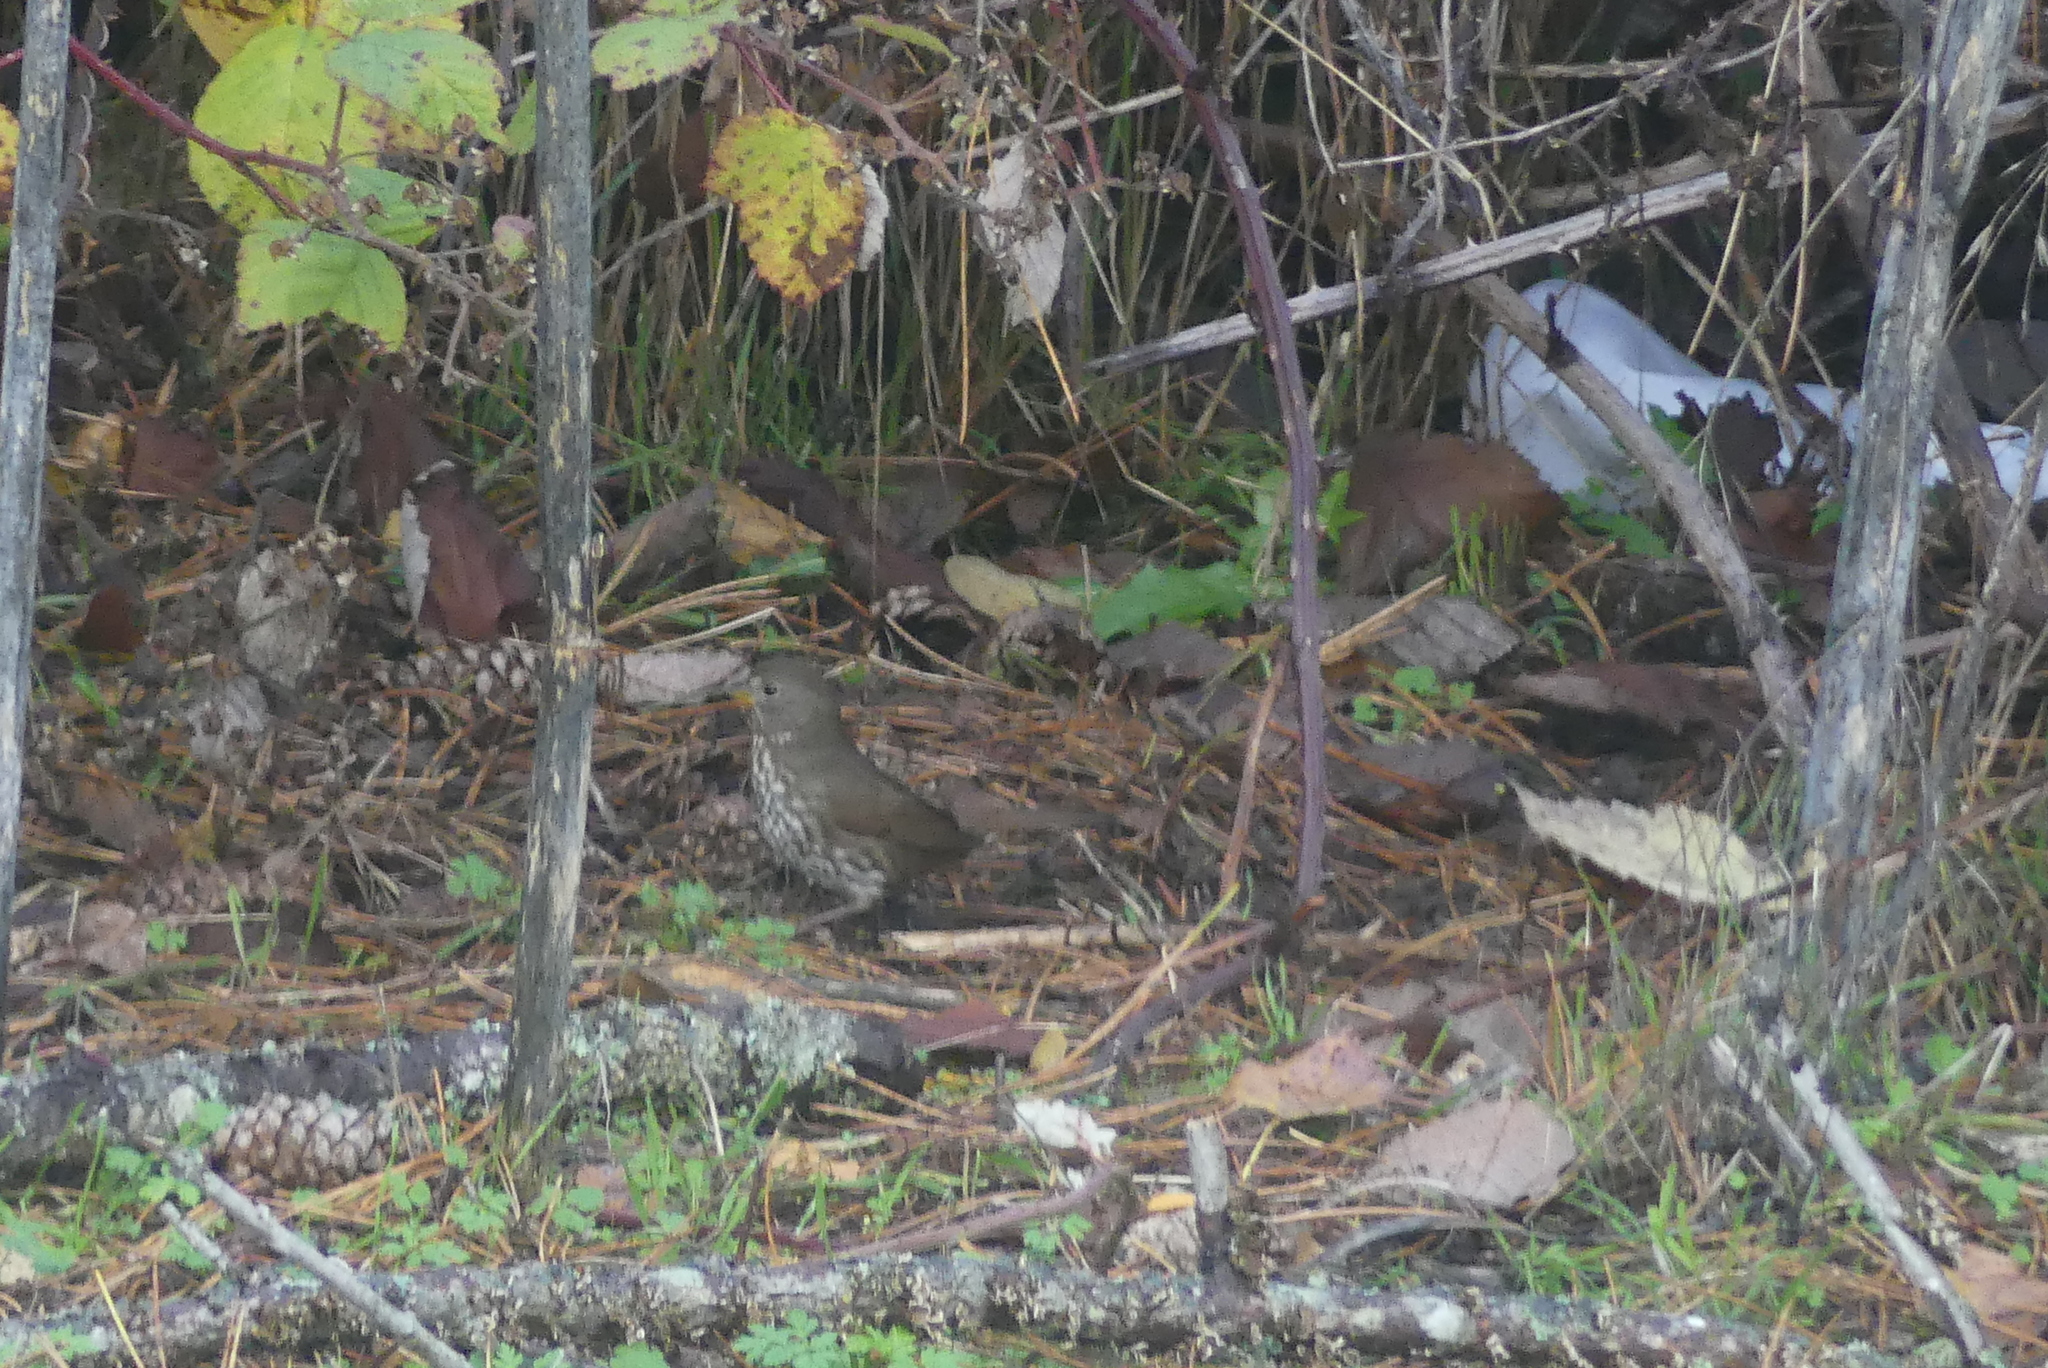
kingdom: Animalia
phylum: Chordata
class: Aves
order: Passeriformes
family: Passerellidae
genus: Passerella
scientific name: Passerella iliaca
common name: Fox sparrow
